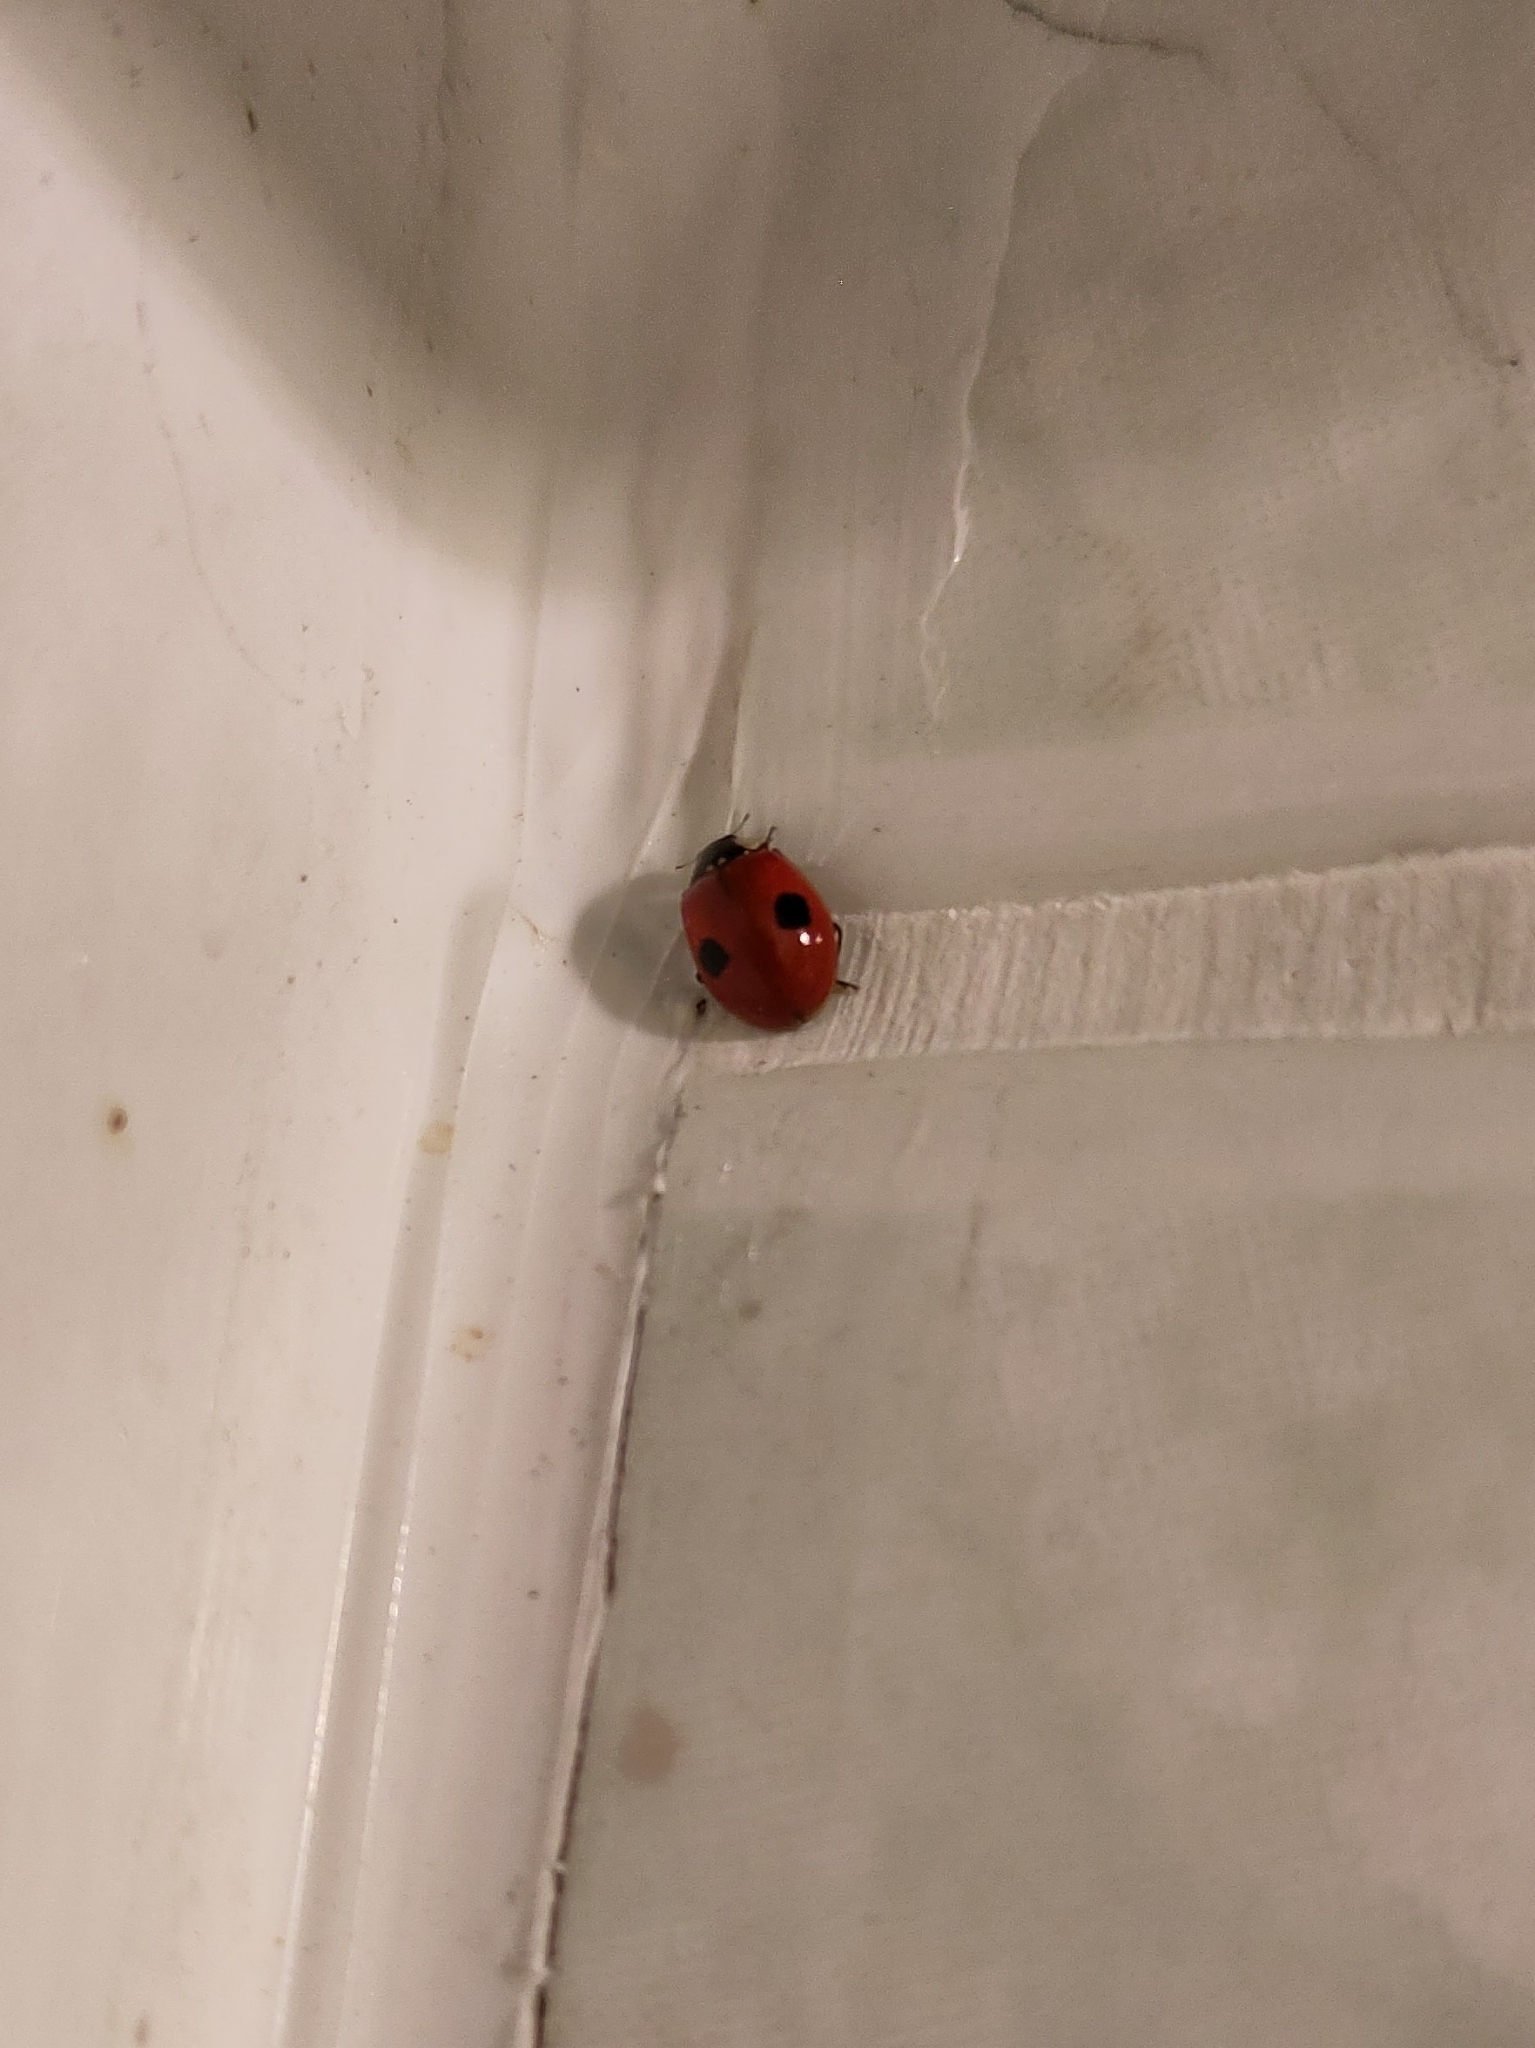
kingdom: Animalia
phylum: Arthropoda
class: Insecta
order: Coleoptera
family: Coccinellidae
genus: Adalia
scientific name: Adalia bipunctata
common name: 2-spot ladybird
